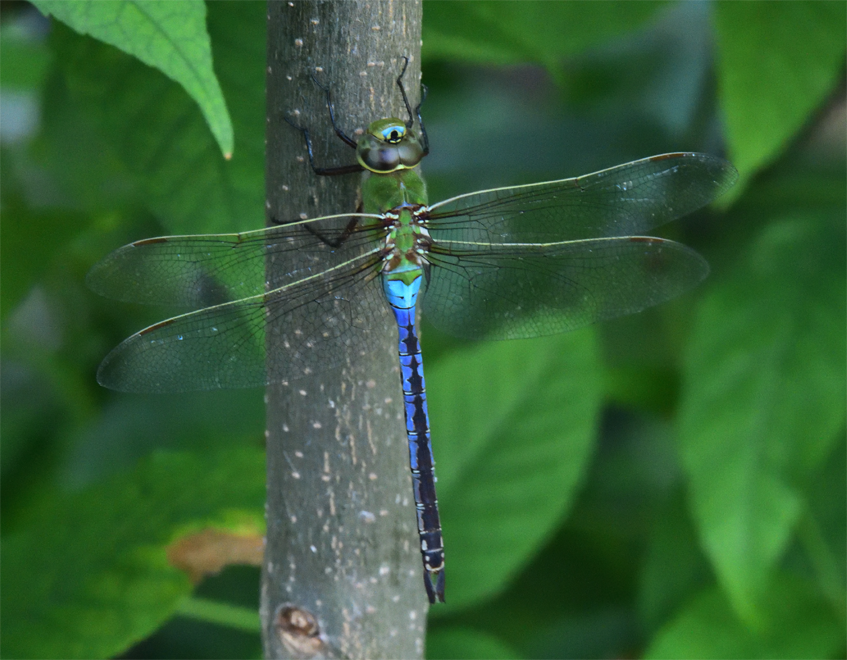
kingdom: Animalia
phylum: Arthropoda
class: Insecta
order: Odonata
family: Aeshnidae
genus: Anax
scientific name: Anax junius
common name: Common green darner
